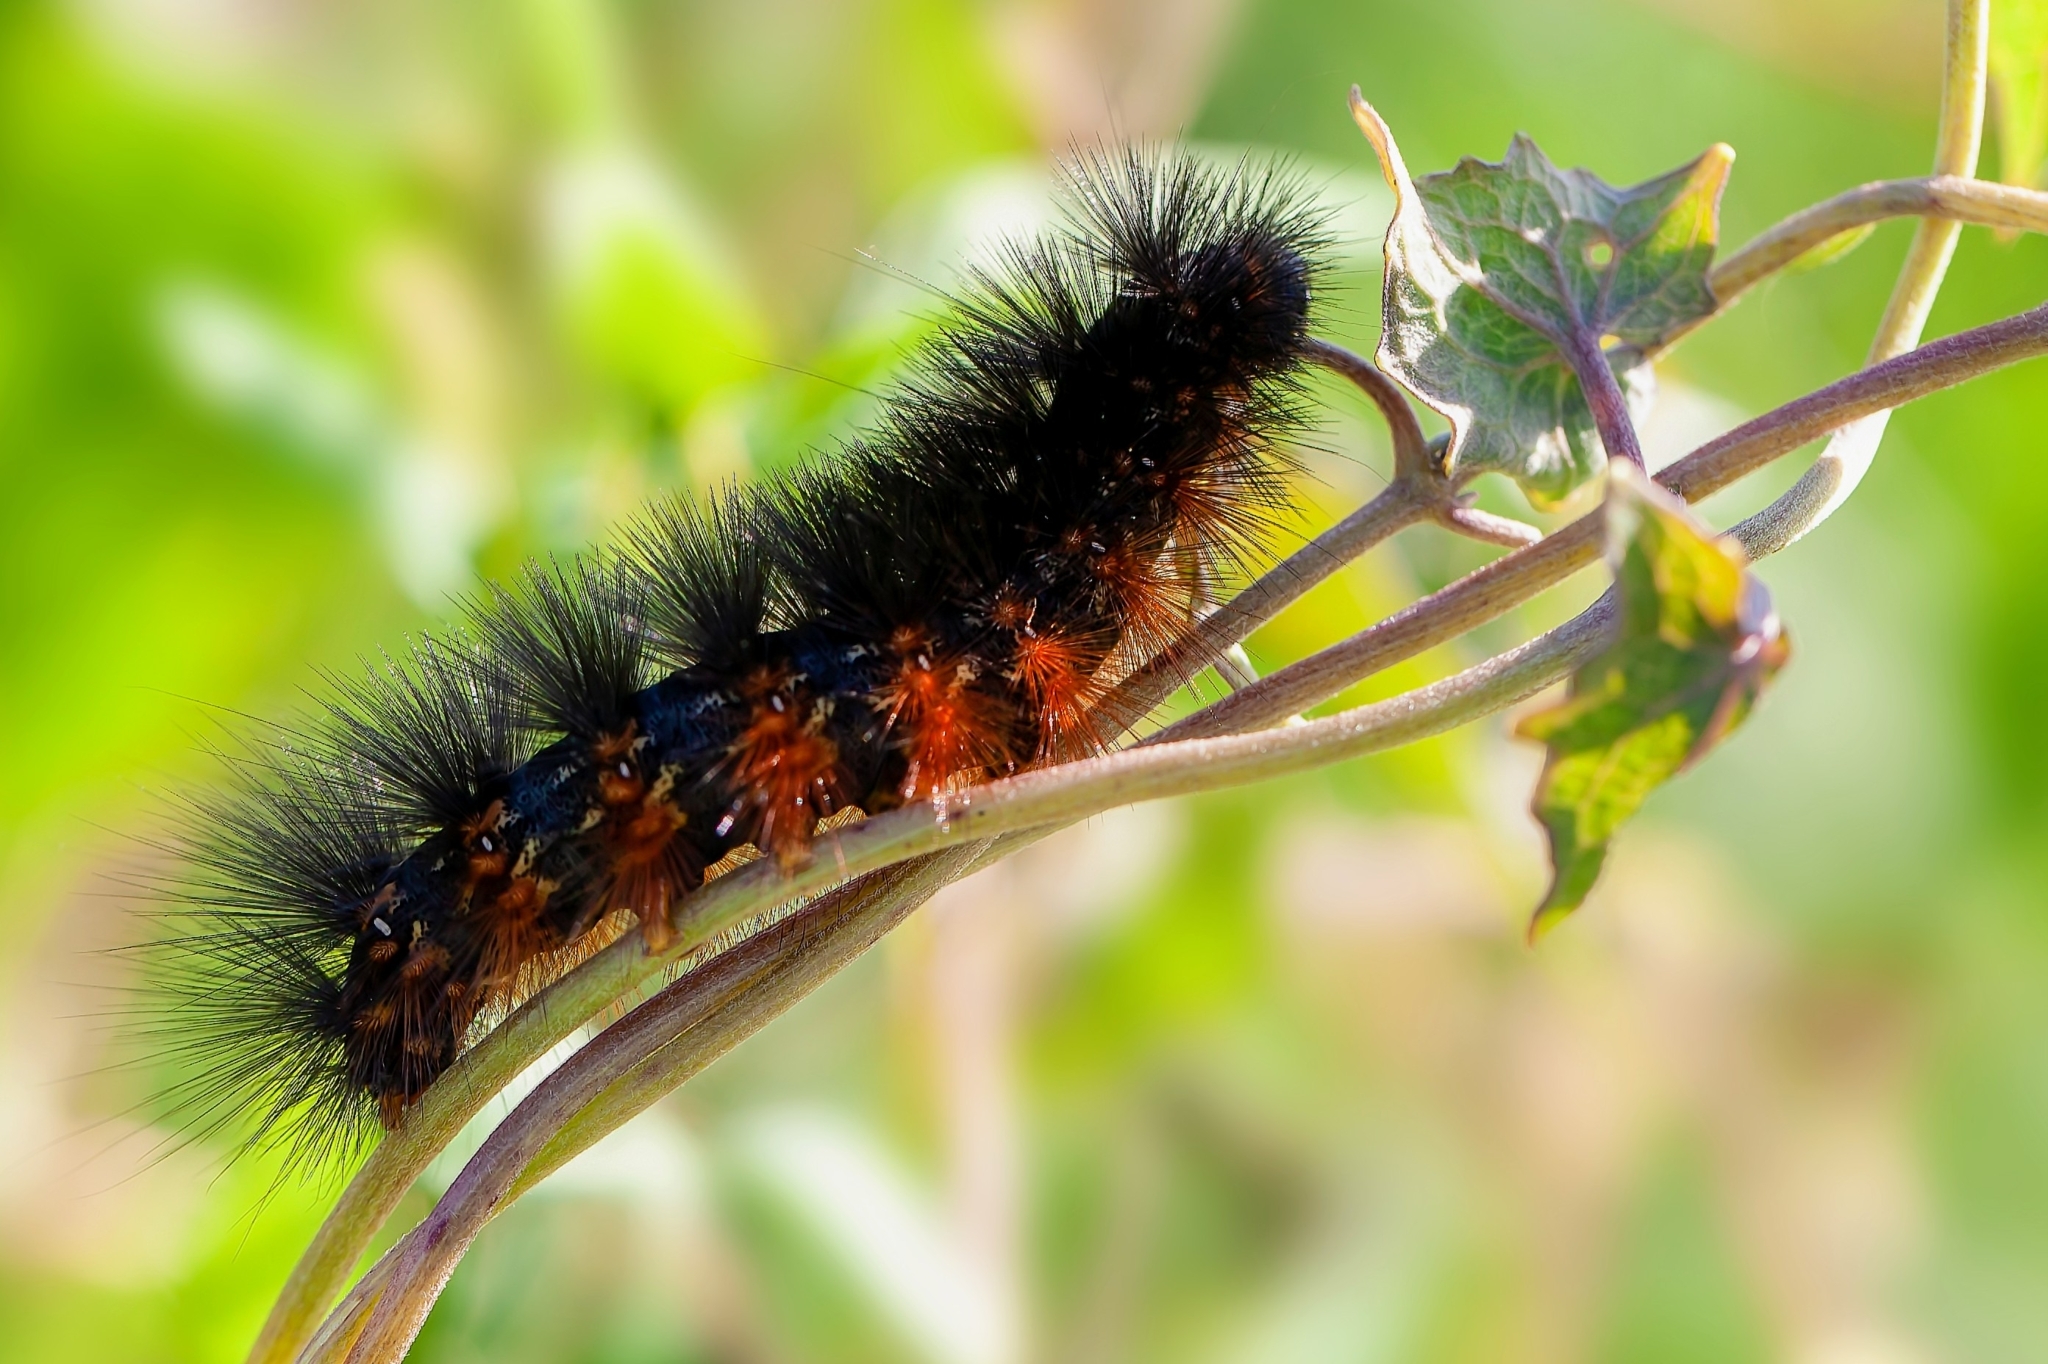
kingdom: Animalia
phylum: Arthropoda
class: Insecta
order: Lepidoptera
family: Erebidae
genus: Estigmene
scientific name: Estigmene acrea
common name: Salt marsh moth
